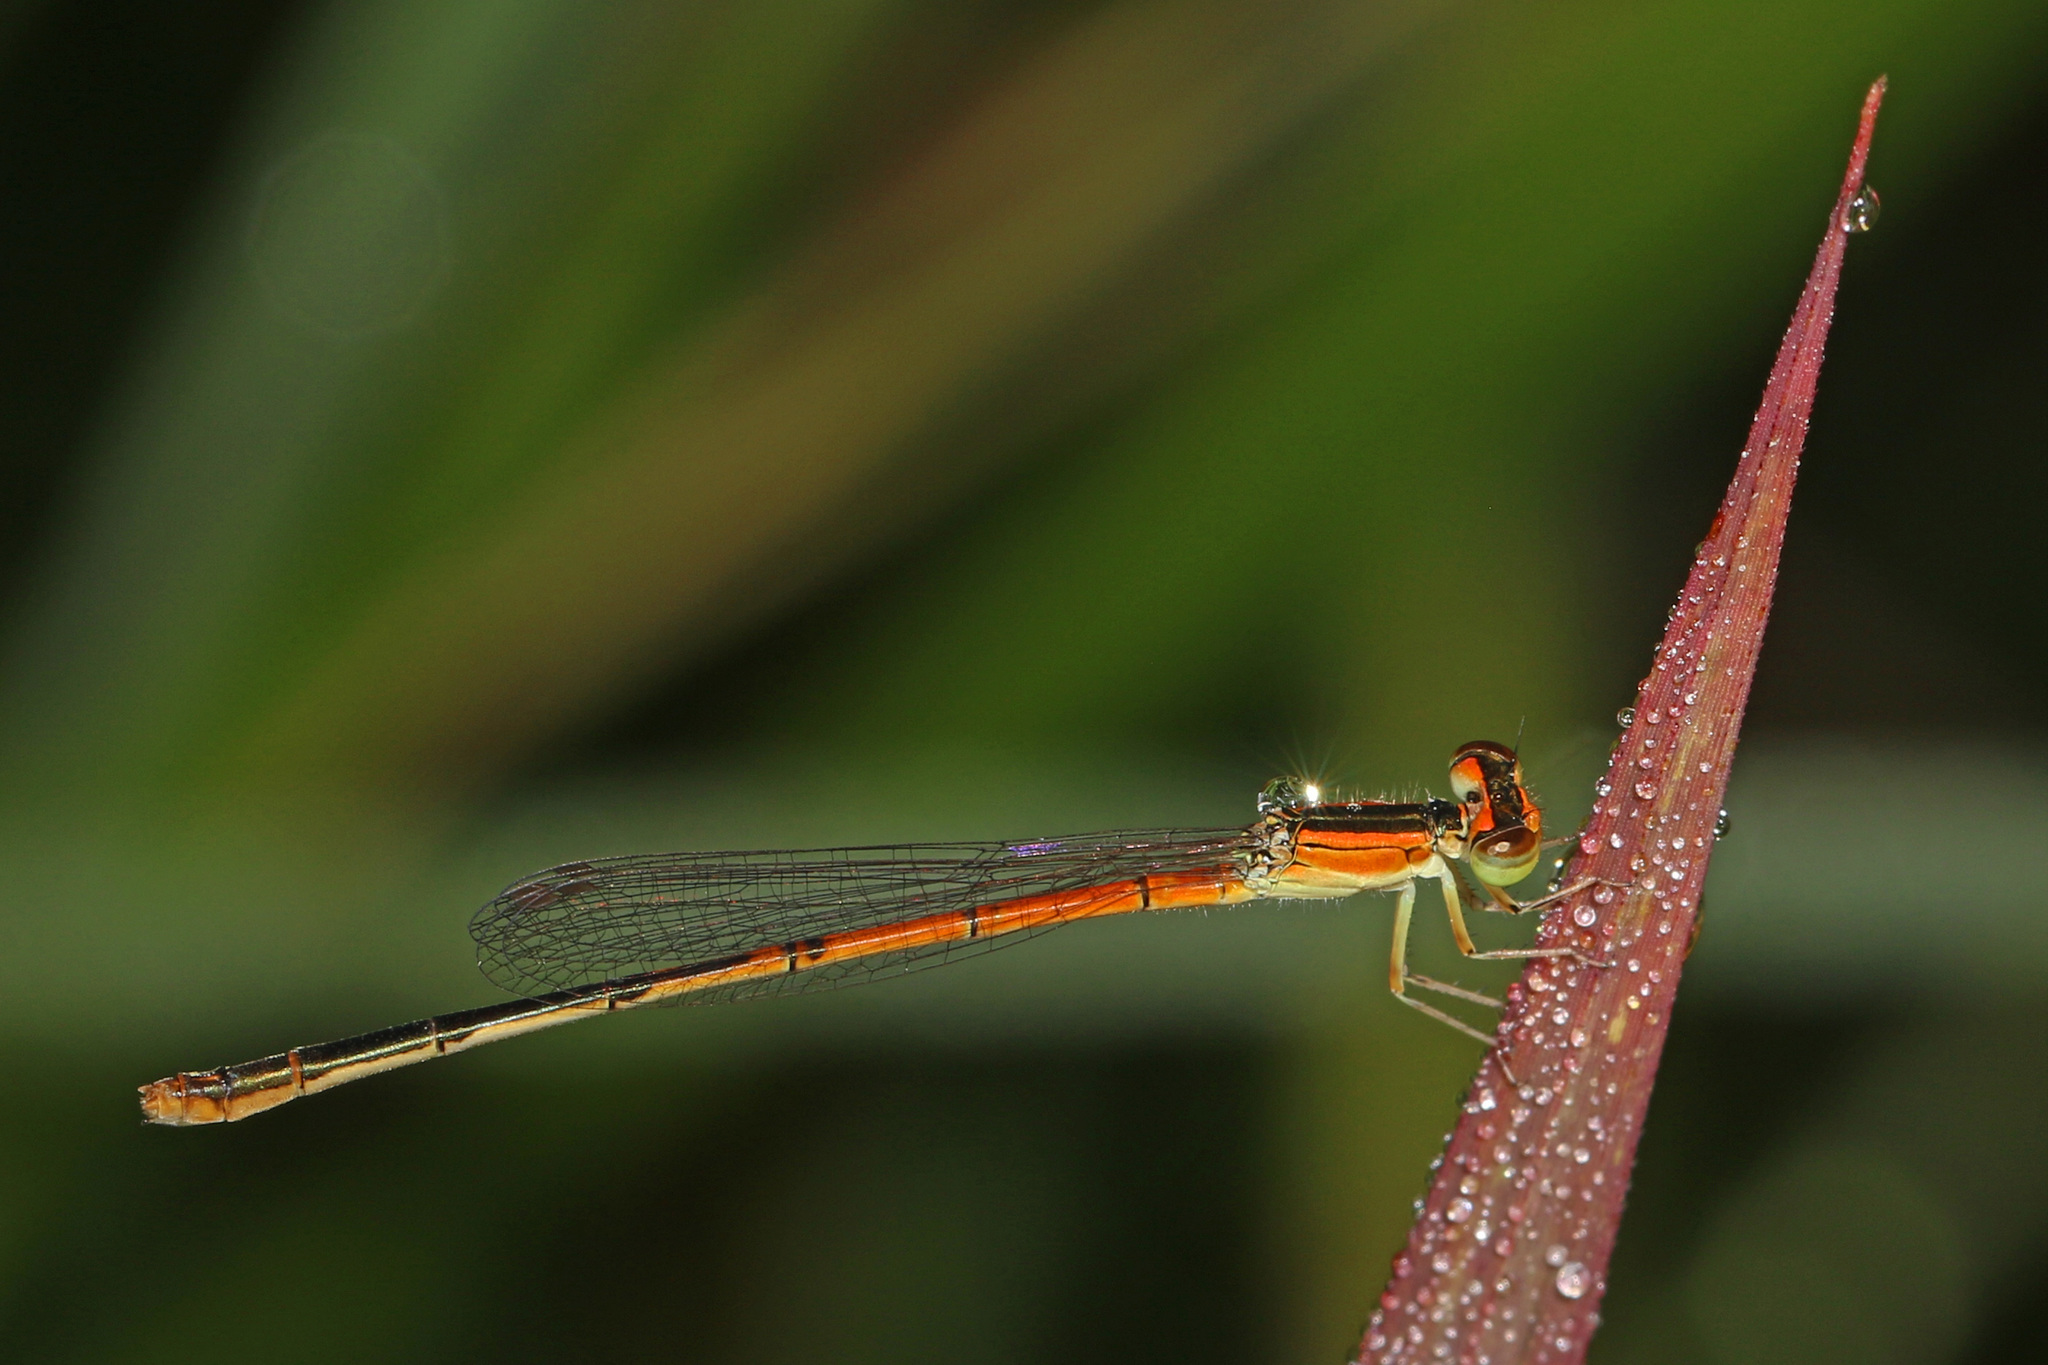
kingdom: Animalia
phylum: Arthropoda
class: Insecta
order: Odonata
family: Coenagrionidae
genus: Ischnura
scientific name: Ischnura hastata
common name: Citrine forktail
